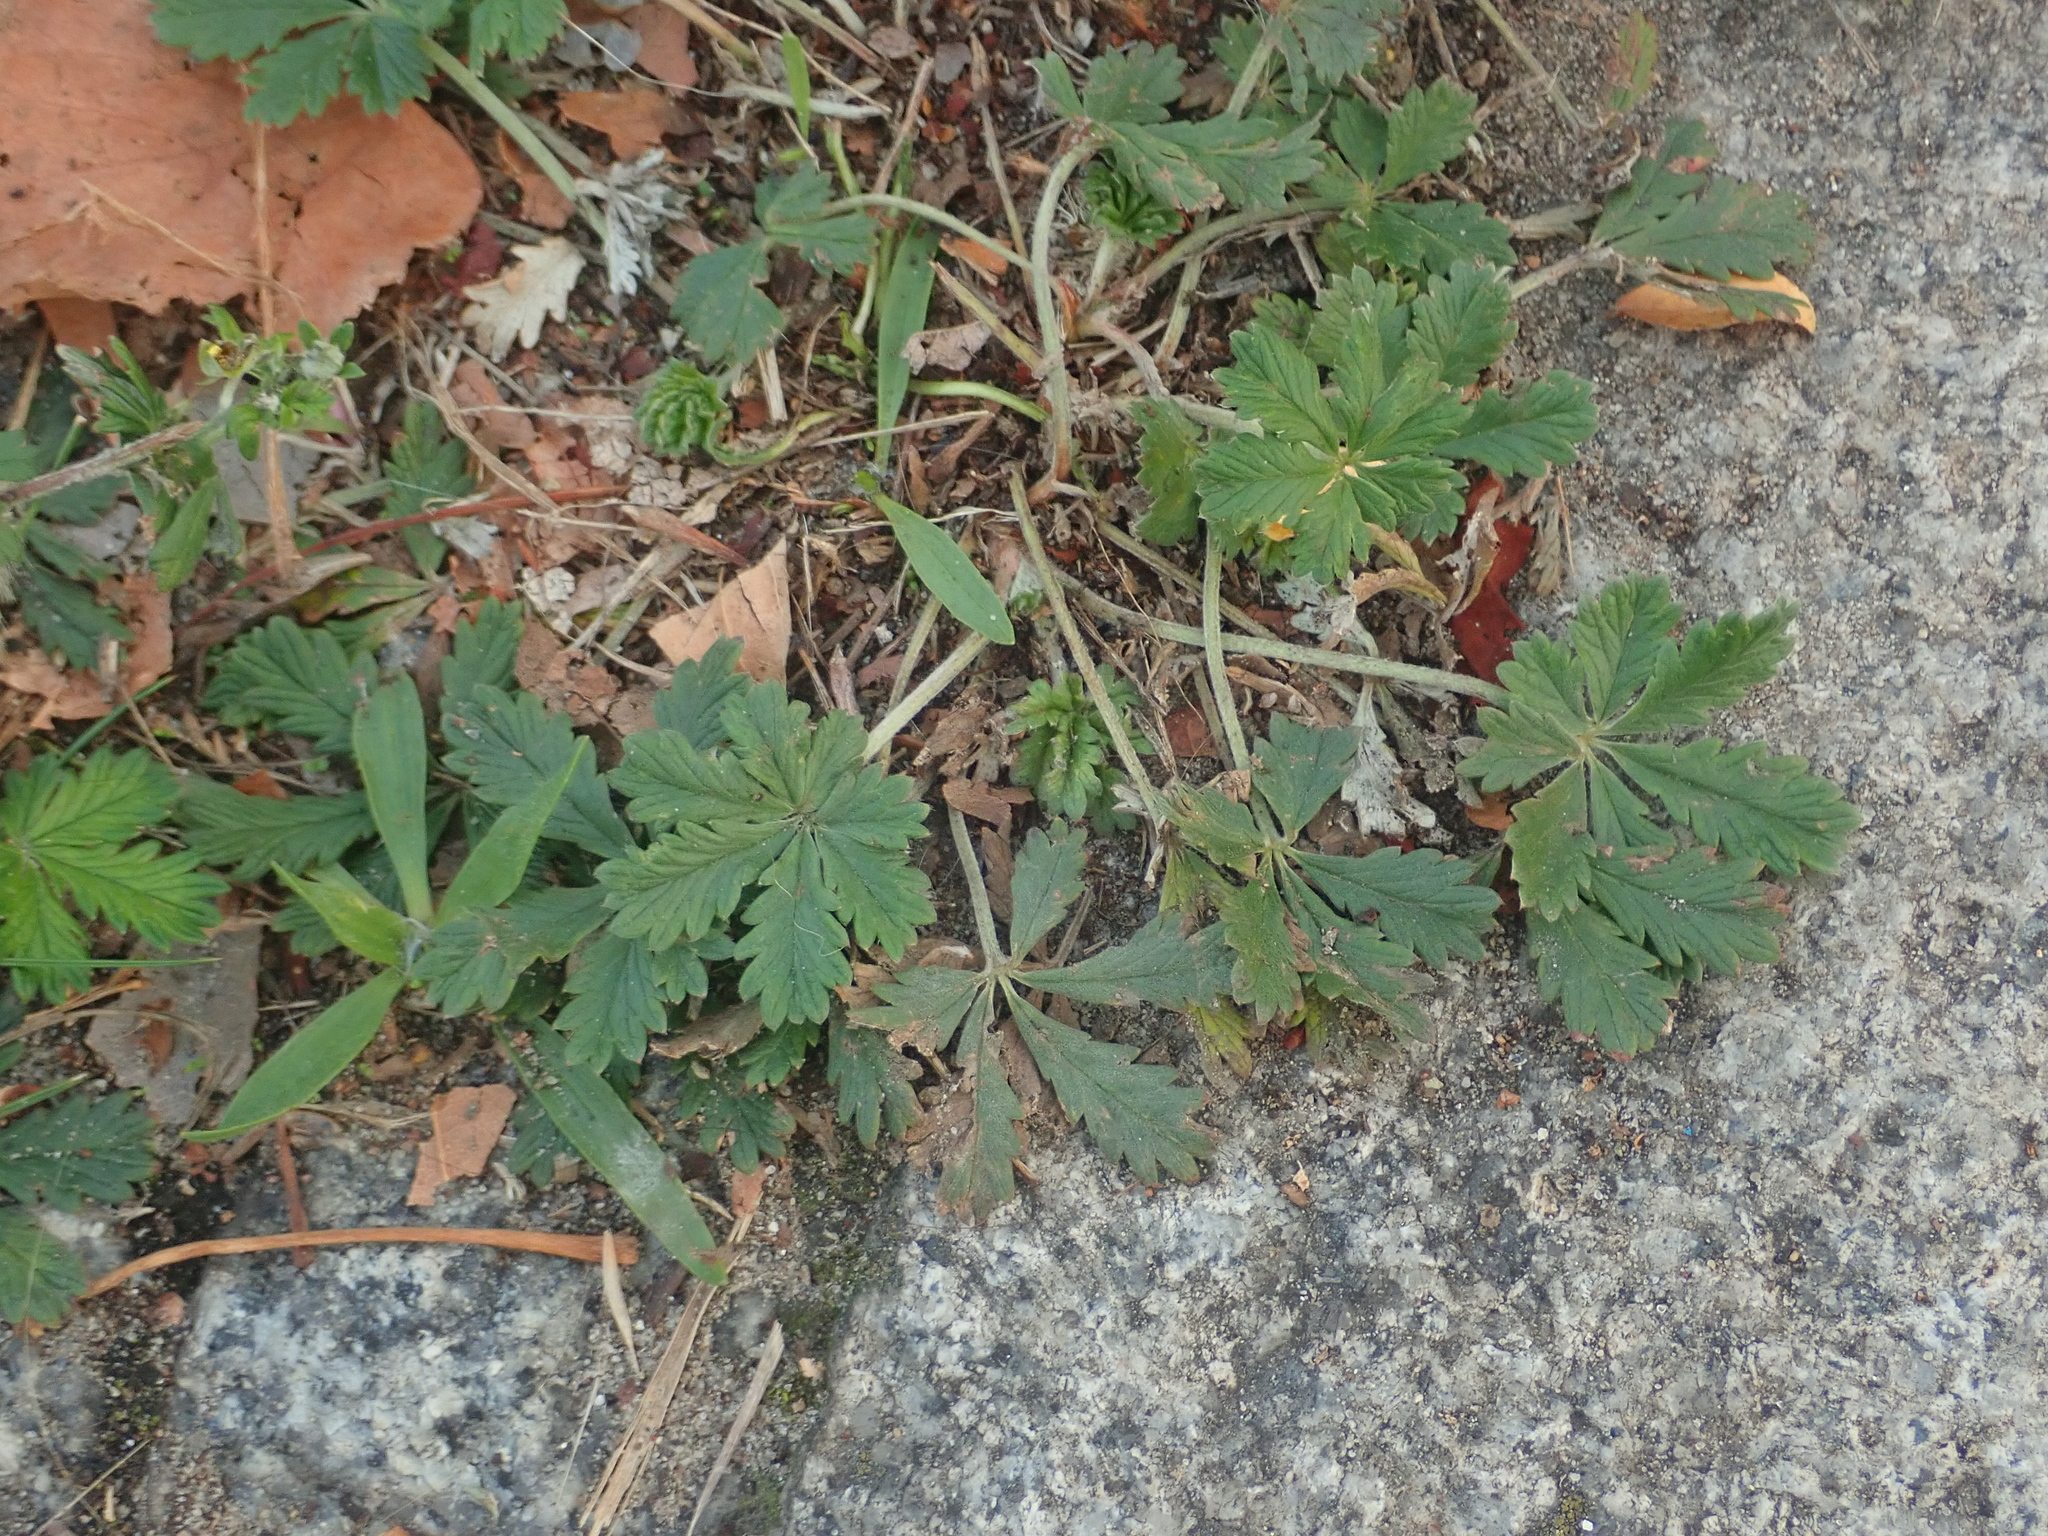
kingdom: Plantae
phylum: Tracheophyta
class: Magnoliopsida
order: Rosales
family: Rosaceae
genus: Potentilla
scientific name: Potentilla argentea
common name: Hoary cinquefoil
